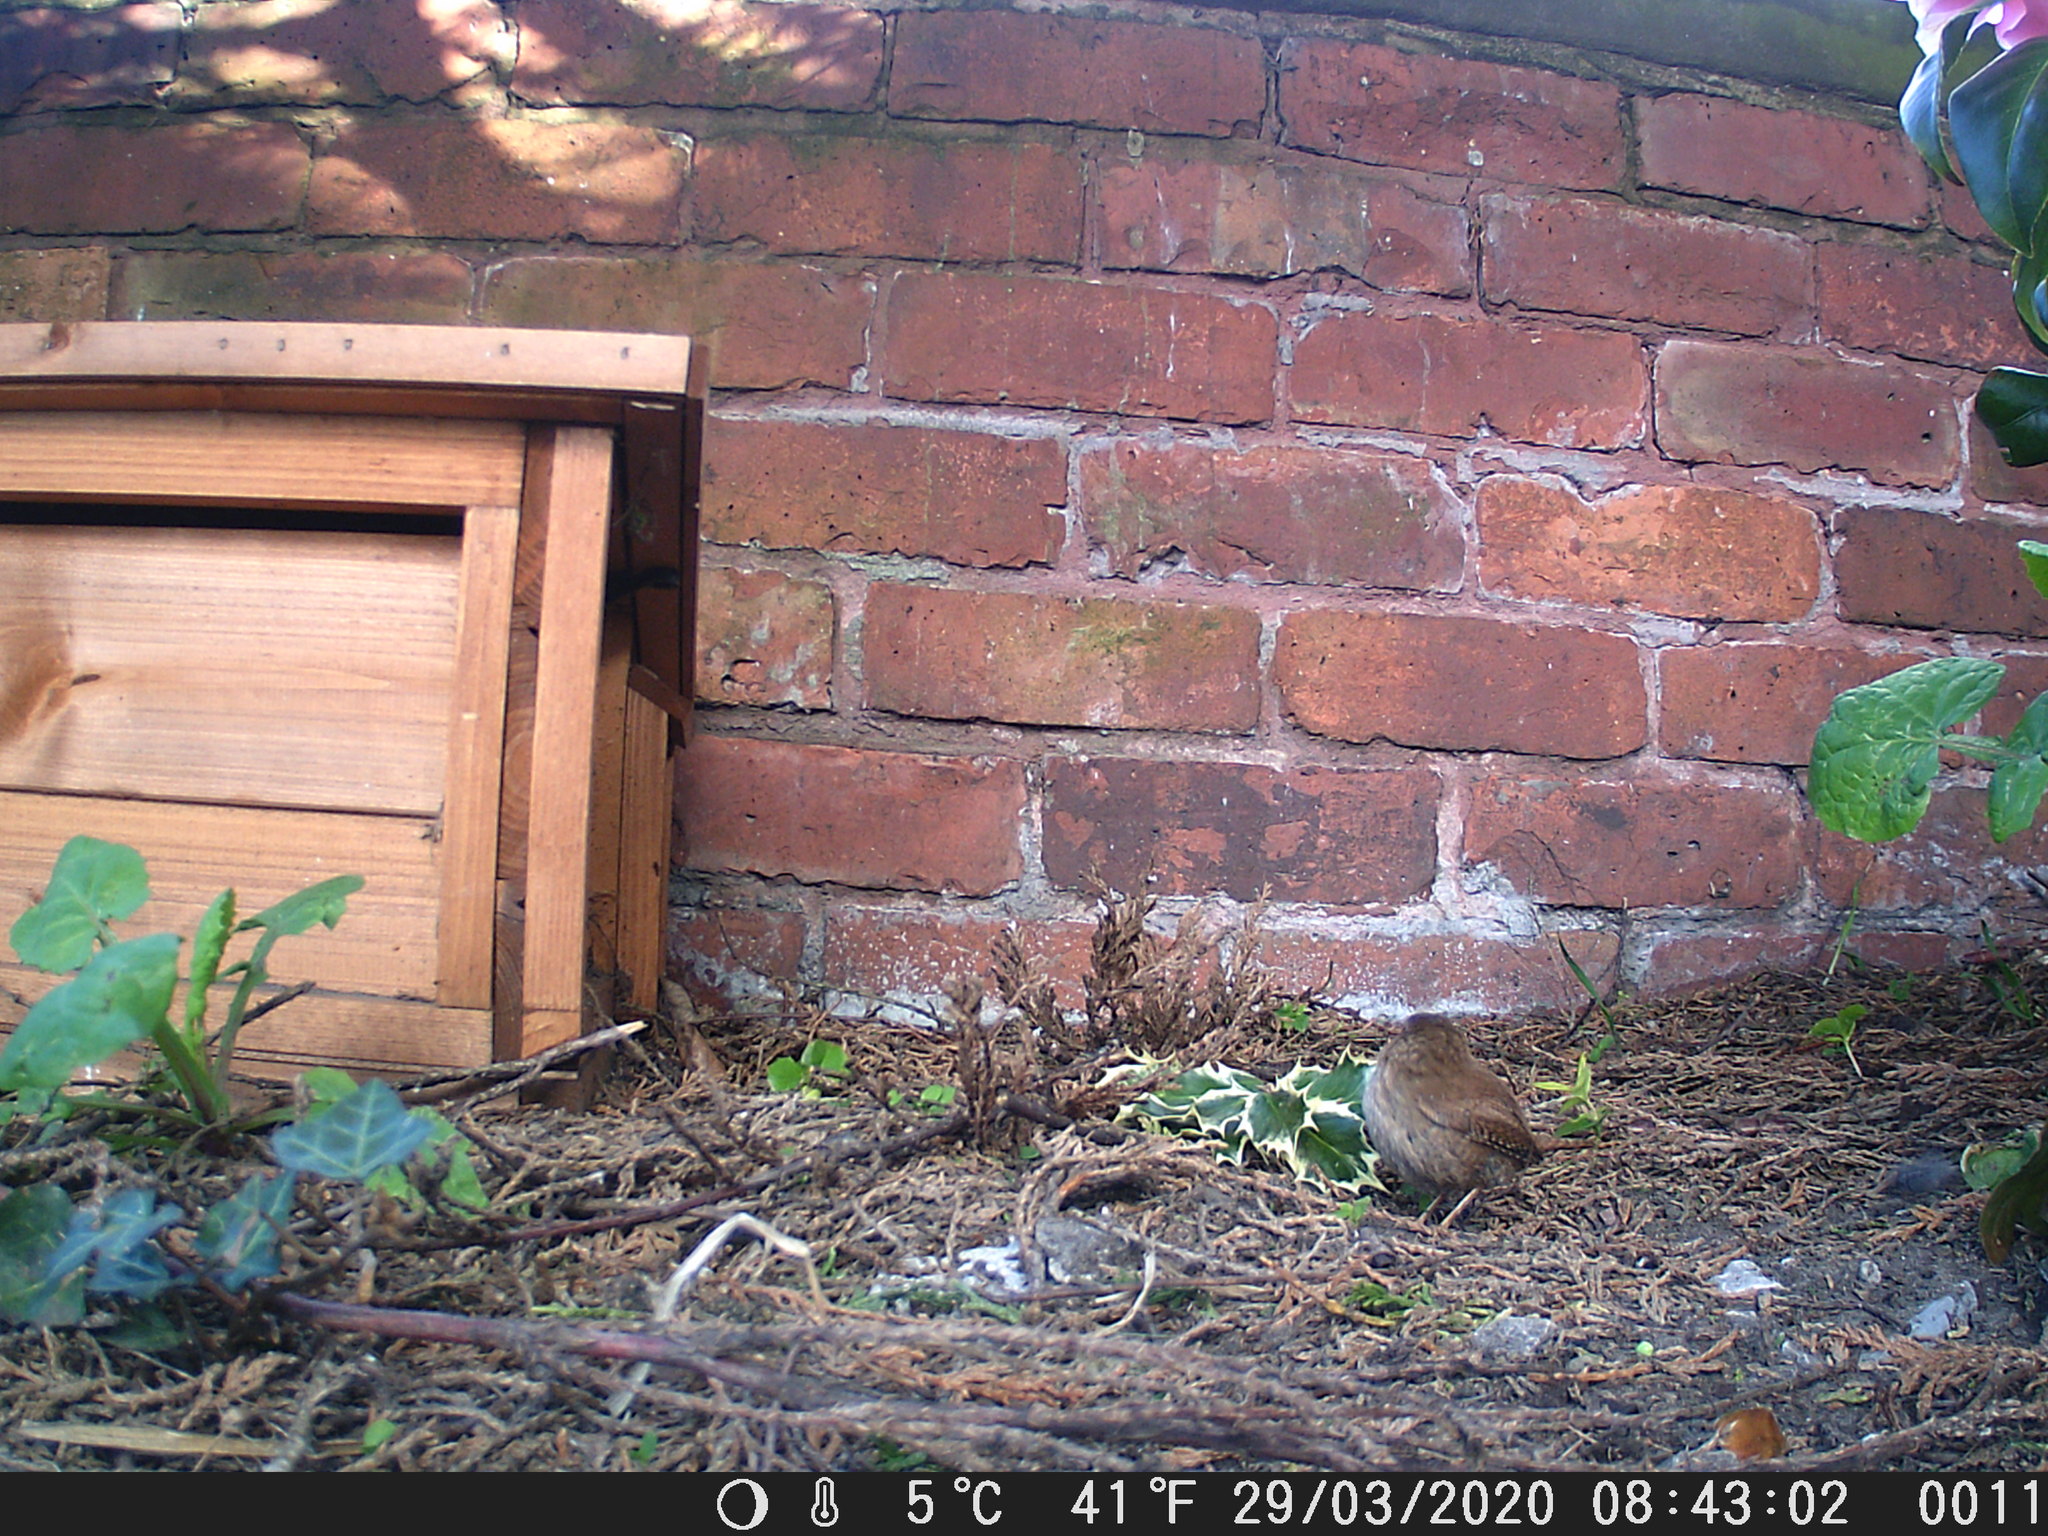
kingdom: Animalia
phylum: Chordata
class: Aves
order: Passeriformes
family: Troglodytidae
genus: Troglodytes
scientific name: Troglodytes troglodytes
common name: Eurasian wren
